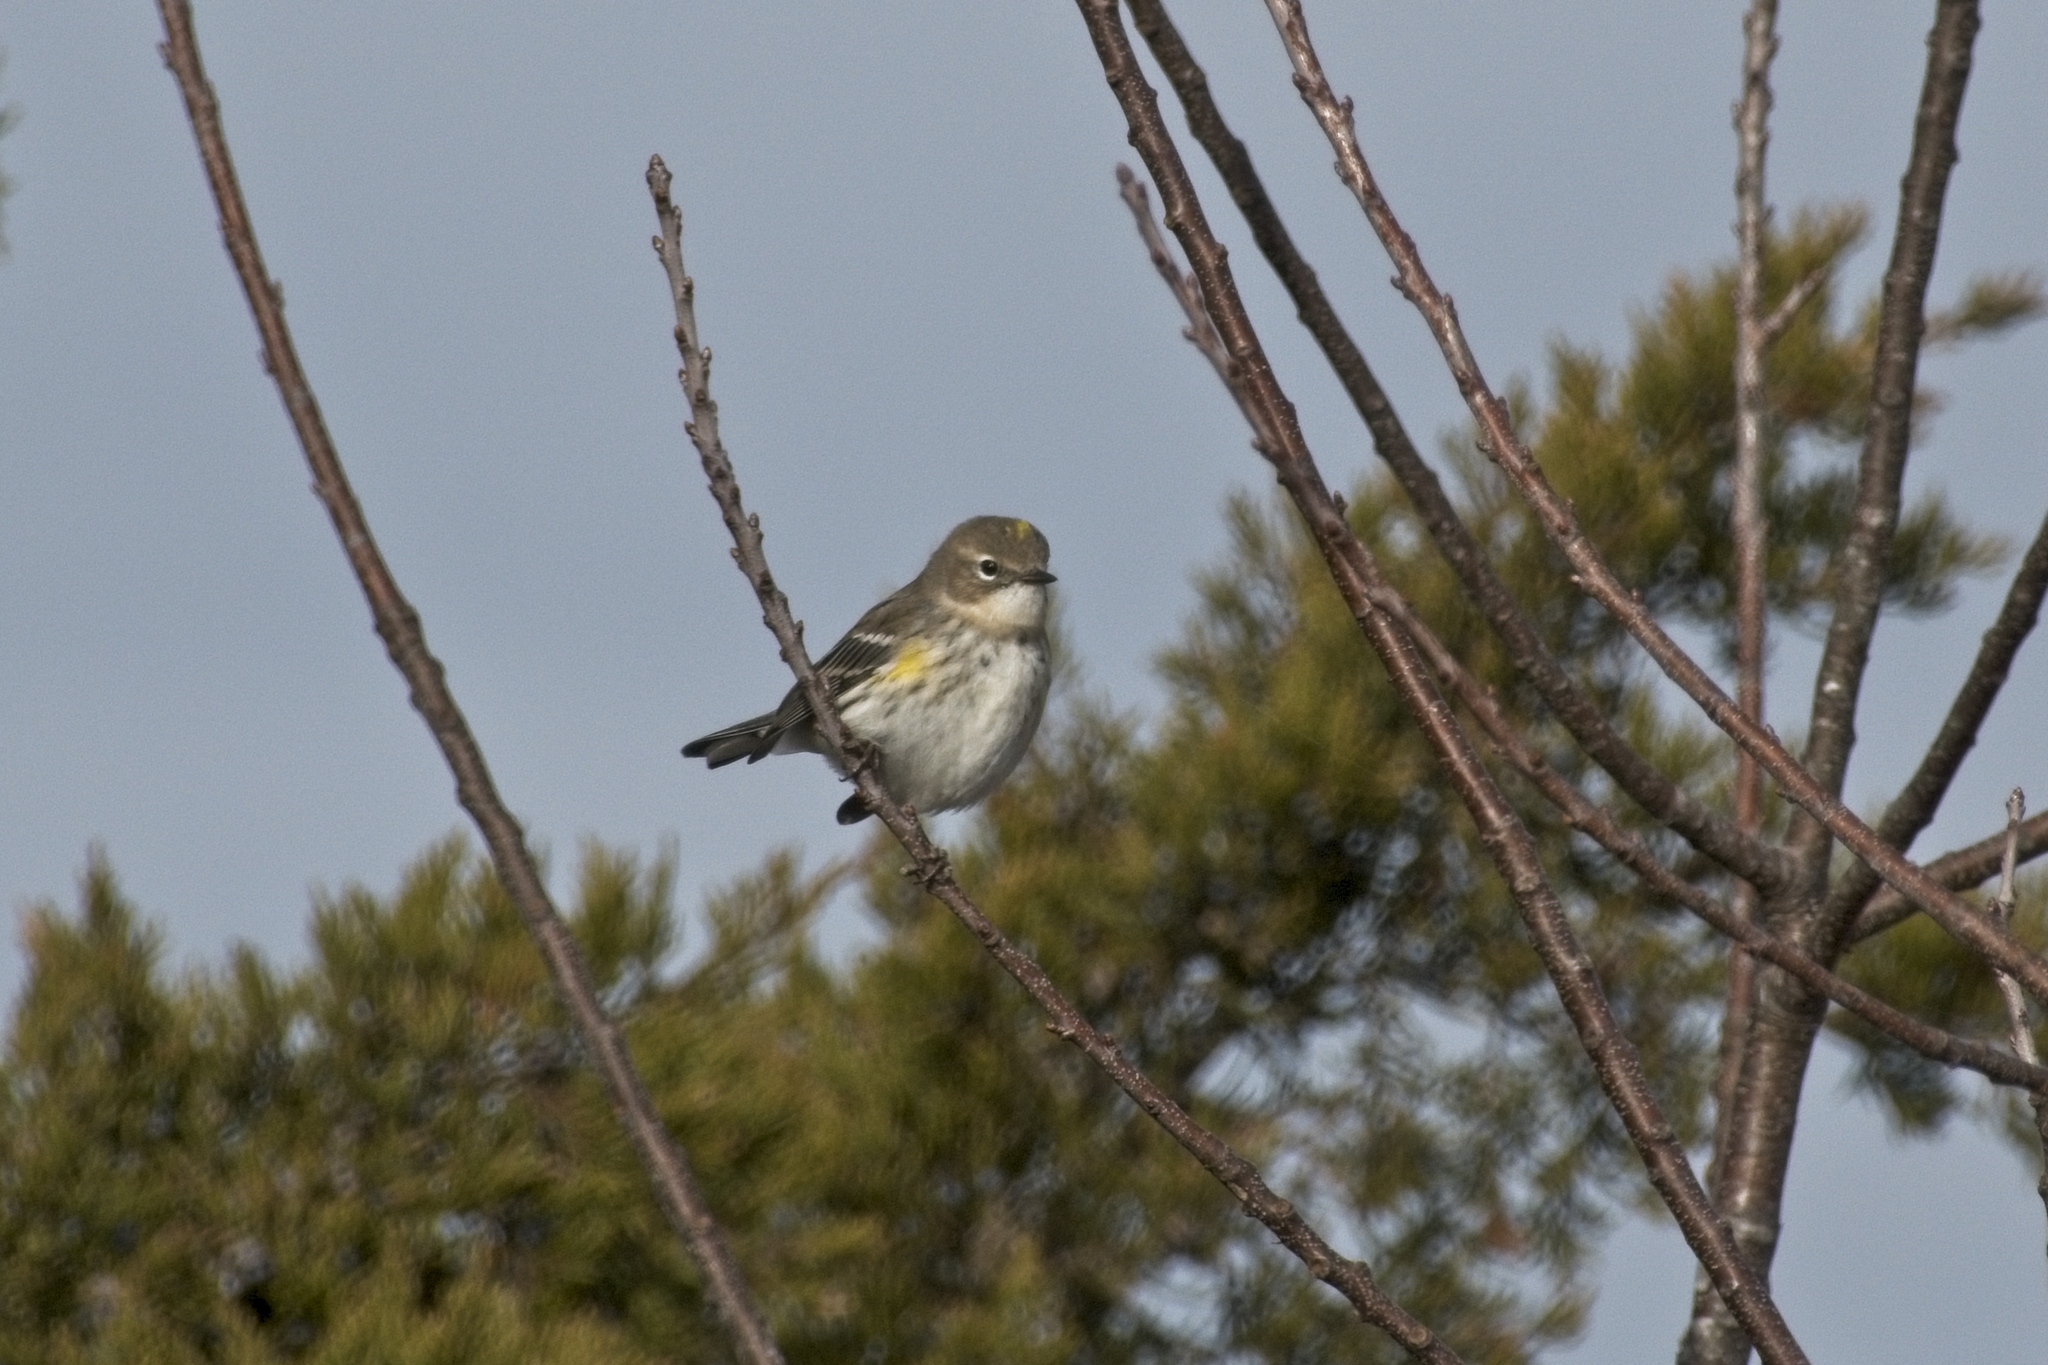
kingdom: Animalia
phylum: Chordata
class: Aves
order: Passeriformes
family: Parulidae
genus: Setophaga
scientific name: Setophaga coronata
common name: Myrtle warbler
